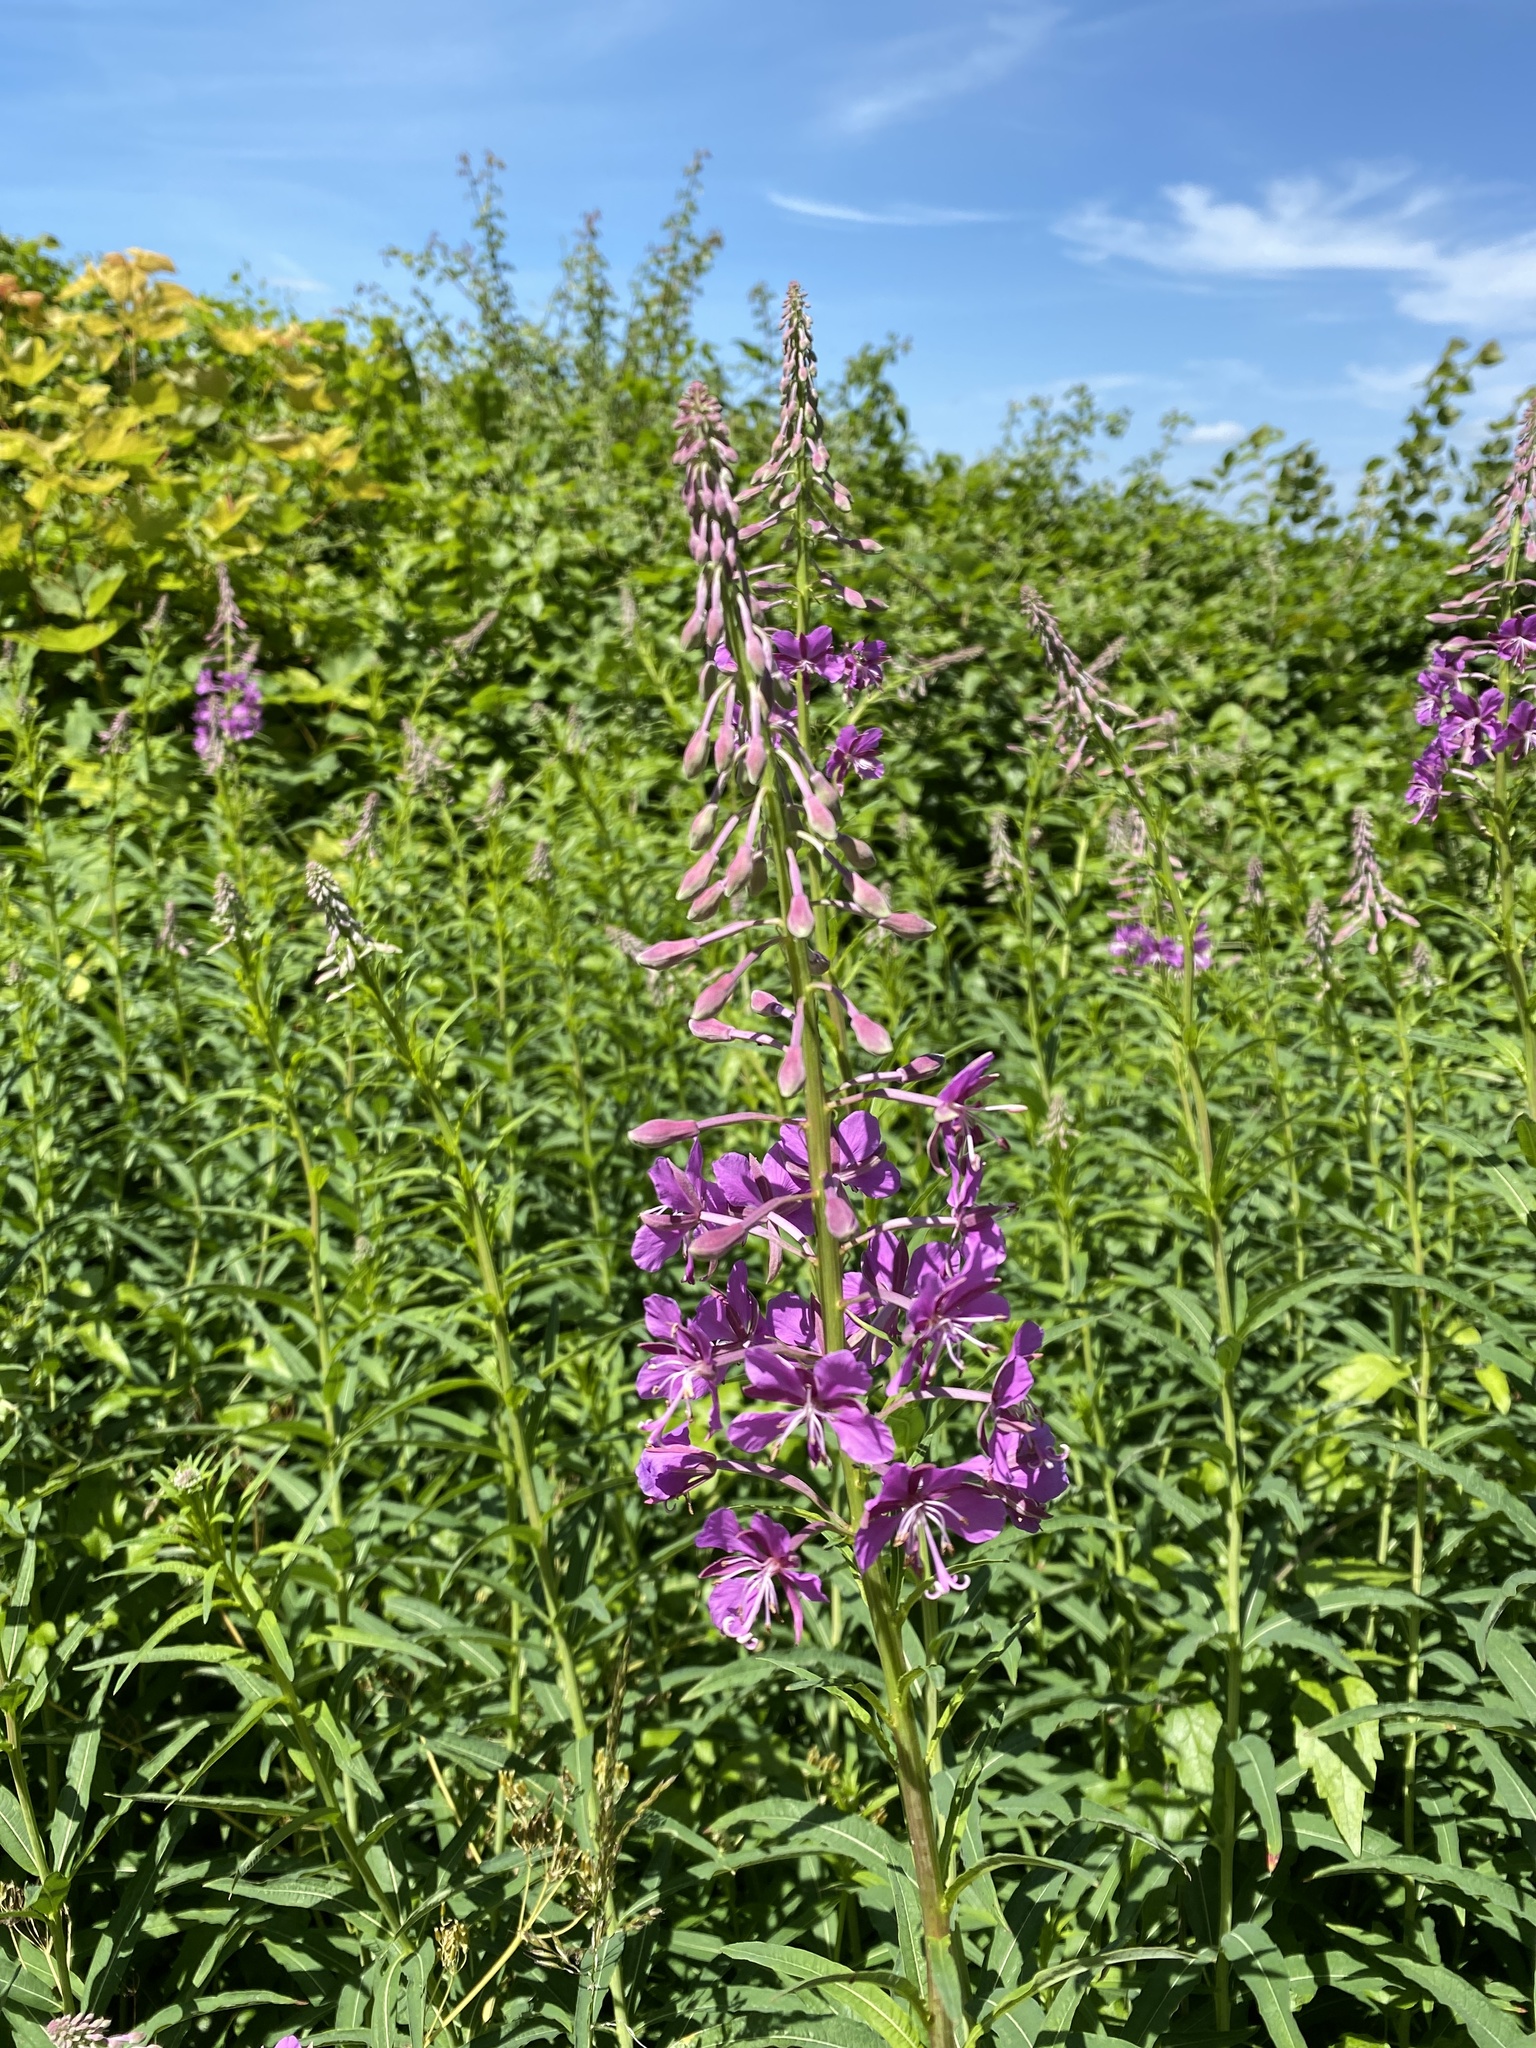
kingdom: Plantae
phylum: Tracheophyta
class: Magnoliopsida
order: Myrtales
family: Onagraceae
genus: Chamaenerion
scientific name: Chamaenerion angustifolium
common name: Fireweed
